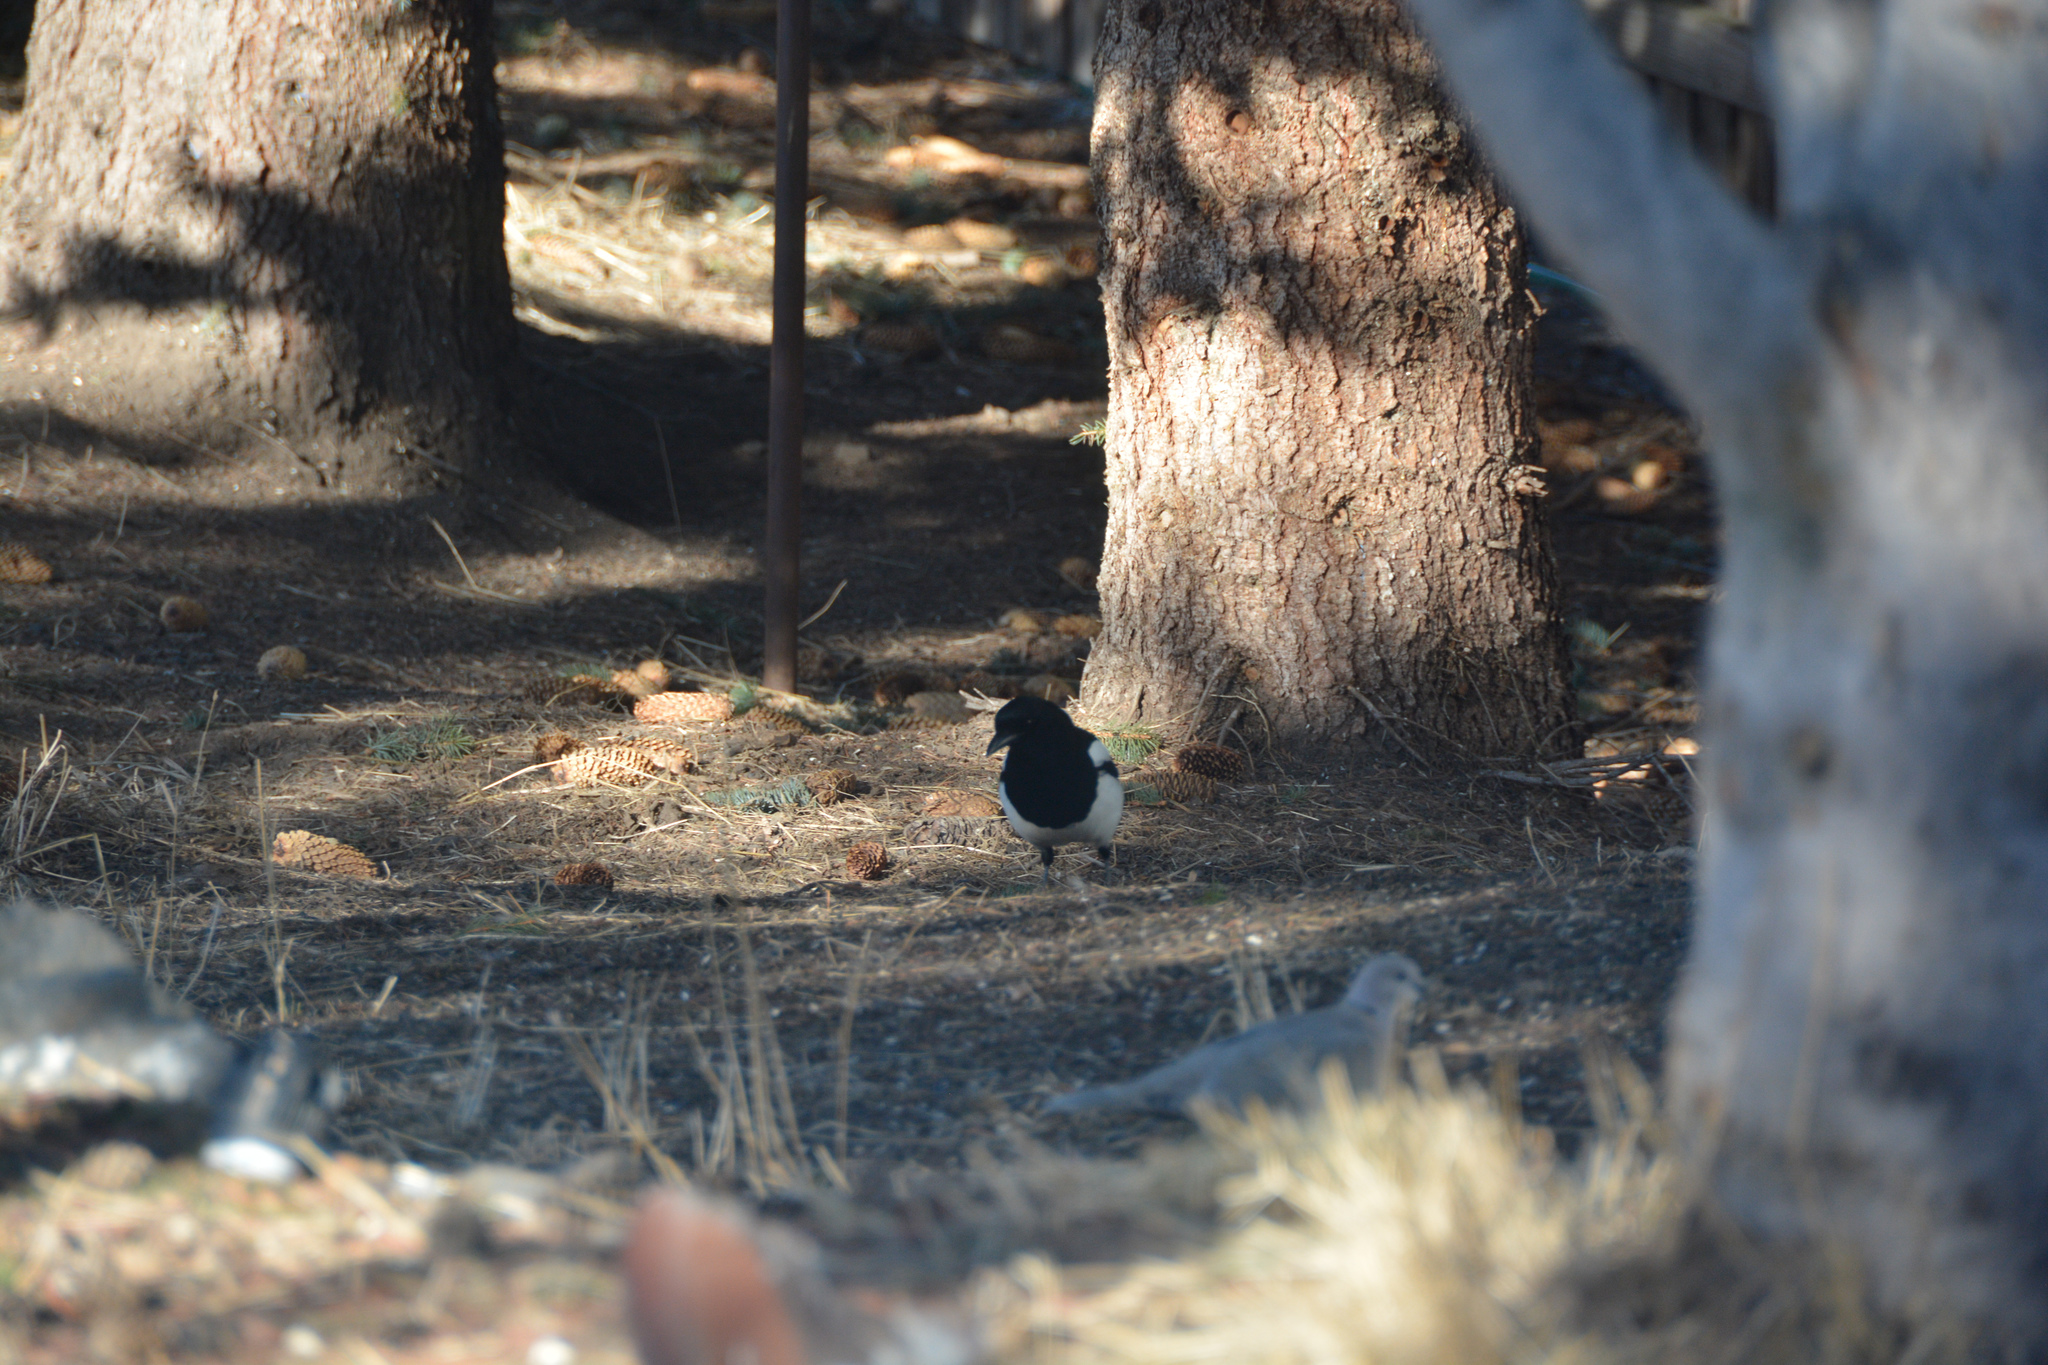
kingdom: Animalia
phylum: Chordata
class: Aves
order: Passeriformes
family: Corvidae
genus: Pica
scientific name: Pica hudsonia
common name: Black-billed magpie
